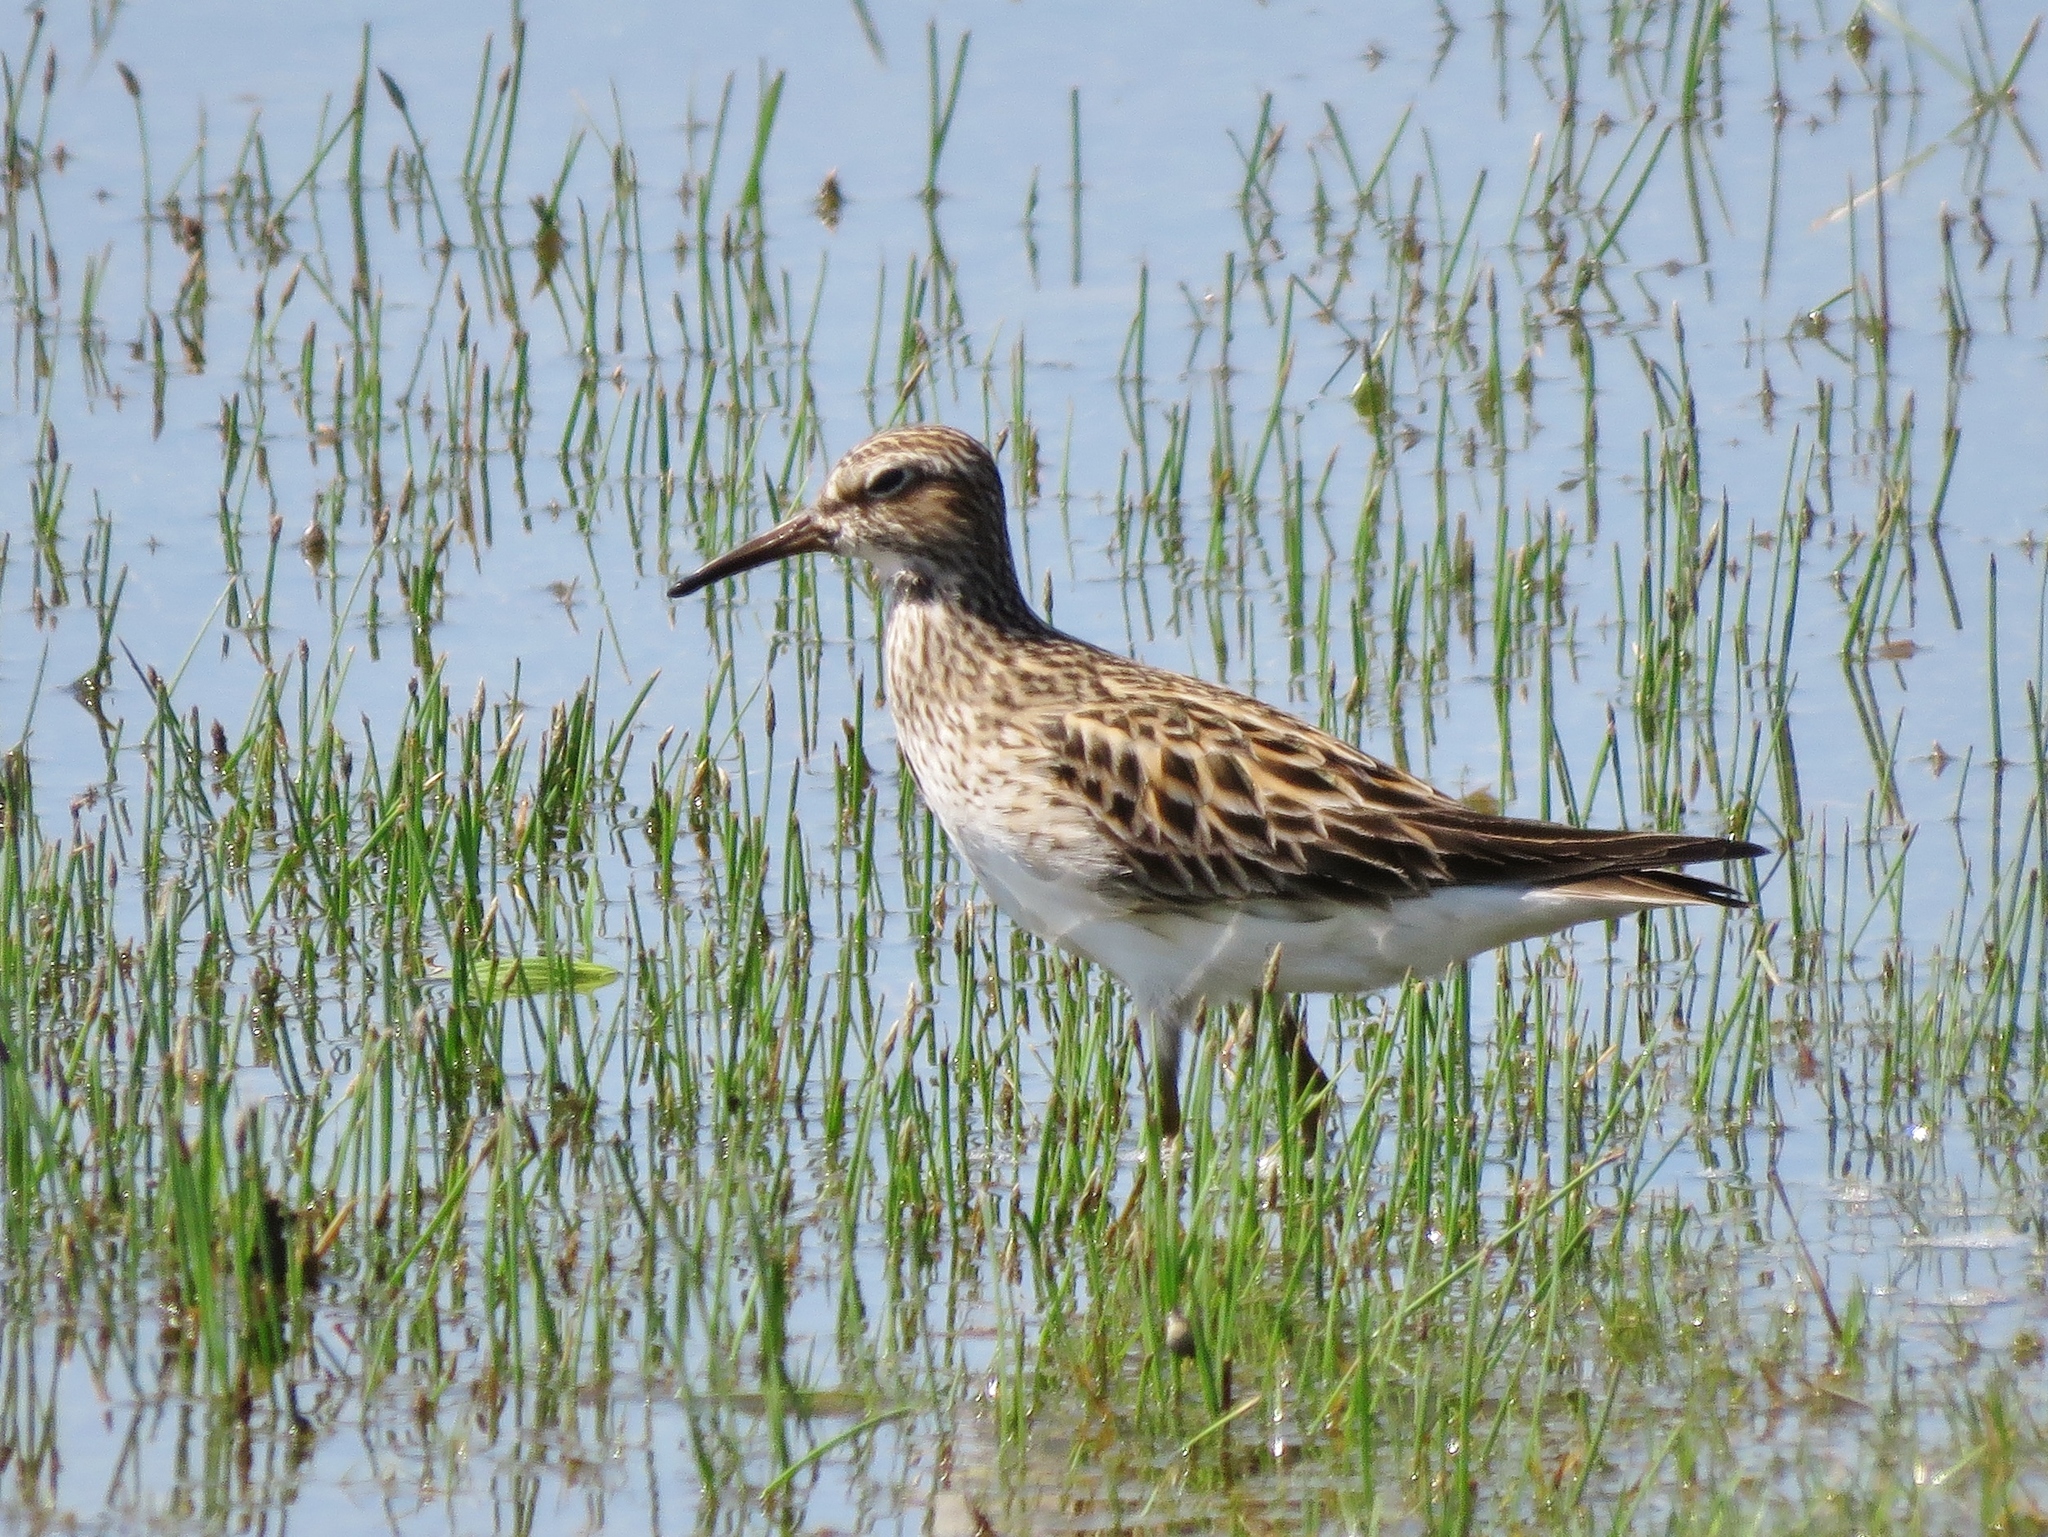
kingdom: Animalia
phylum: Chordata
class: Aves
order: Charadriiformes
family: Scolopacidae
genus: Calidris
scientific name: Calidris melanotos
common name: Pectoral sandpiper
